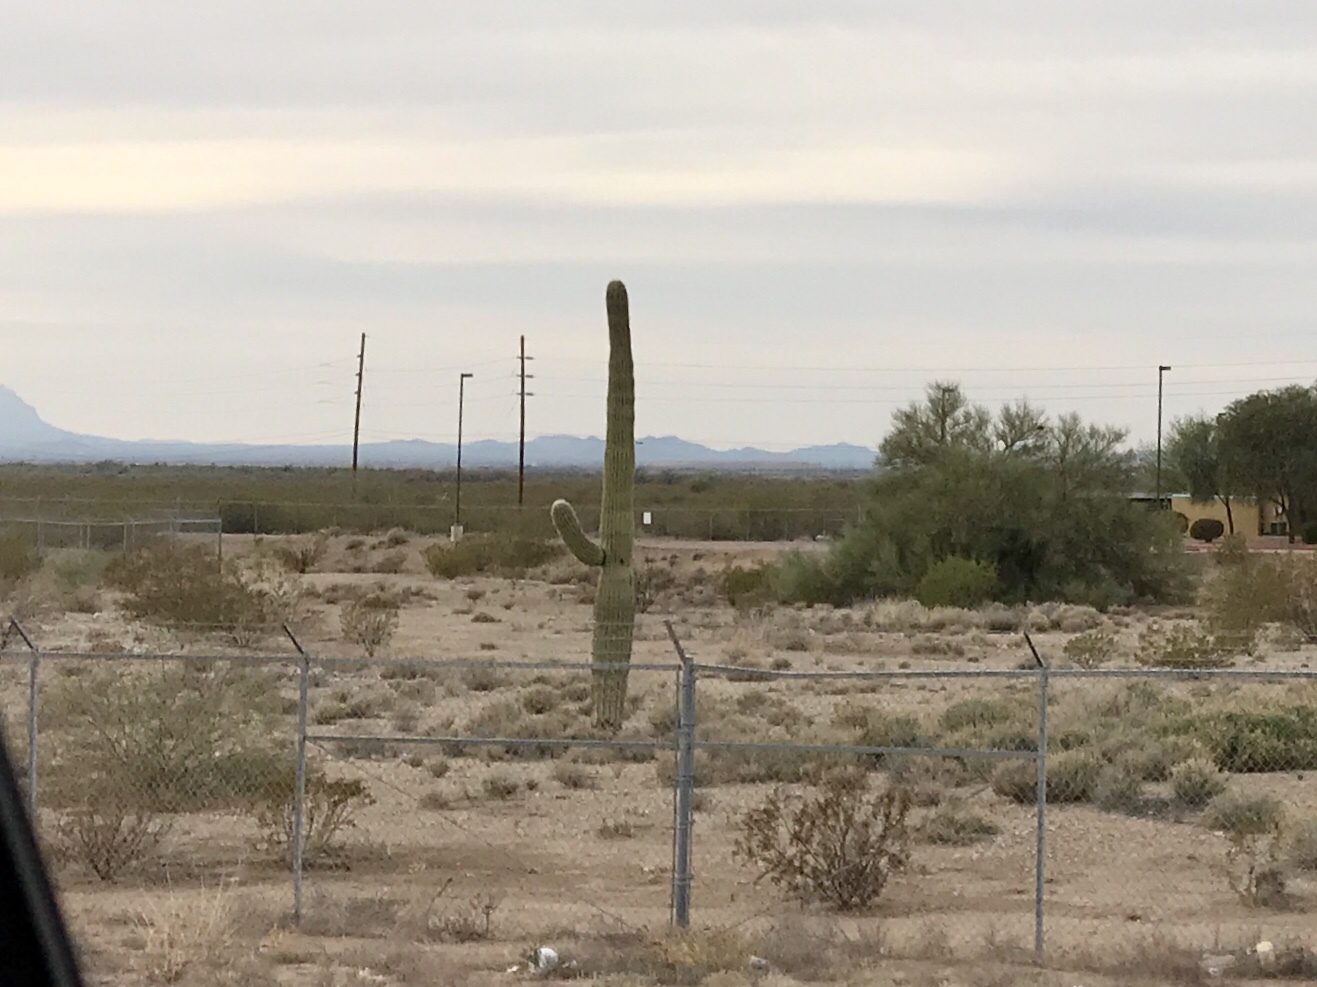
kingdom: Plantae
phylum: Tracheophyta
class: Magnoliopsida
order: Caryophyllales
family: Cactaceae
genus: Carnegiea
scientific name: Carnegiea gigantea
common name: Saguaro
